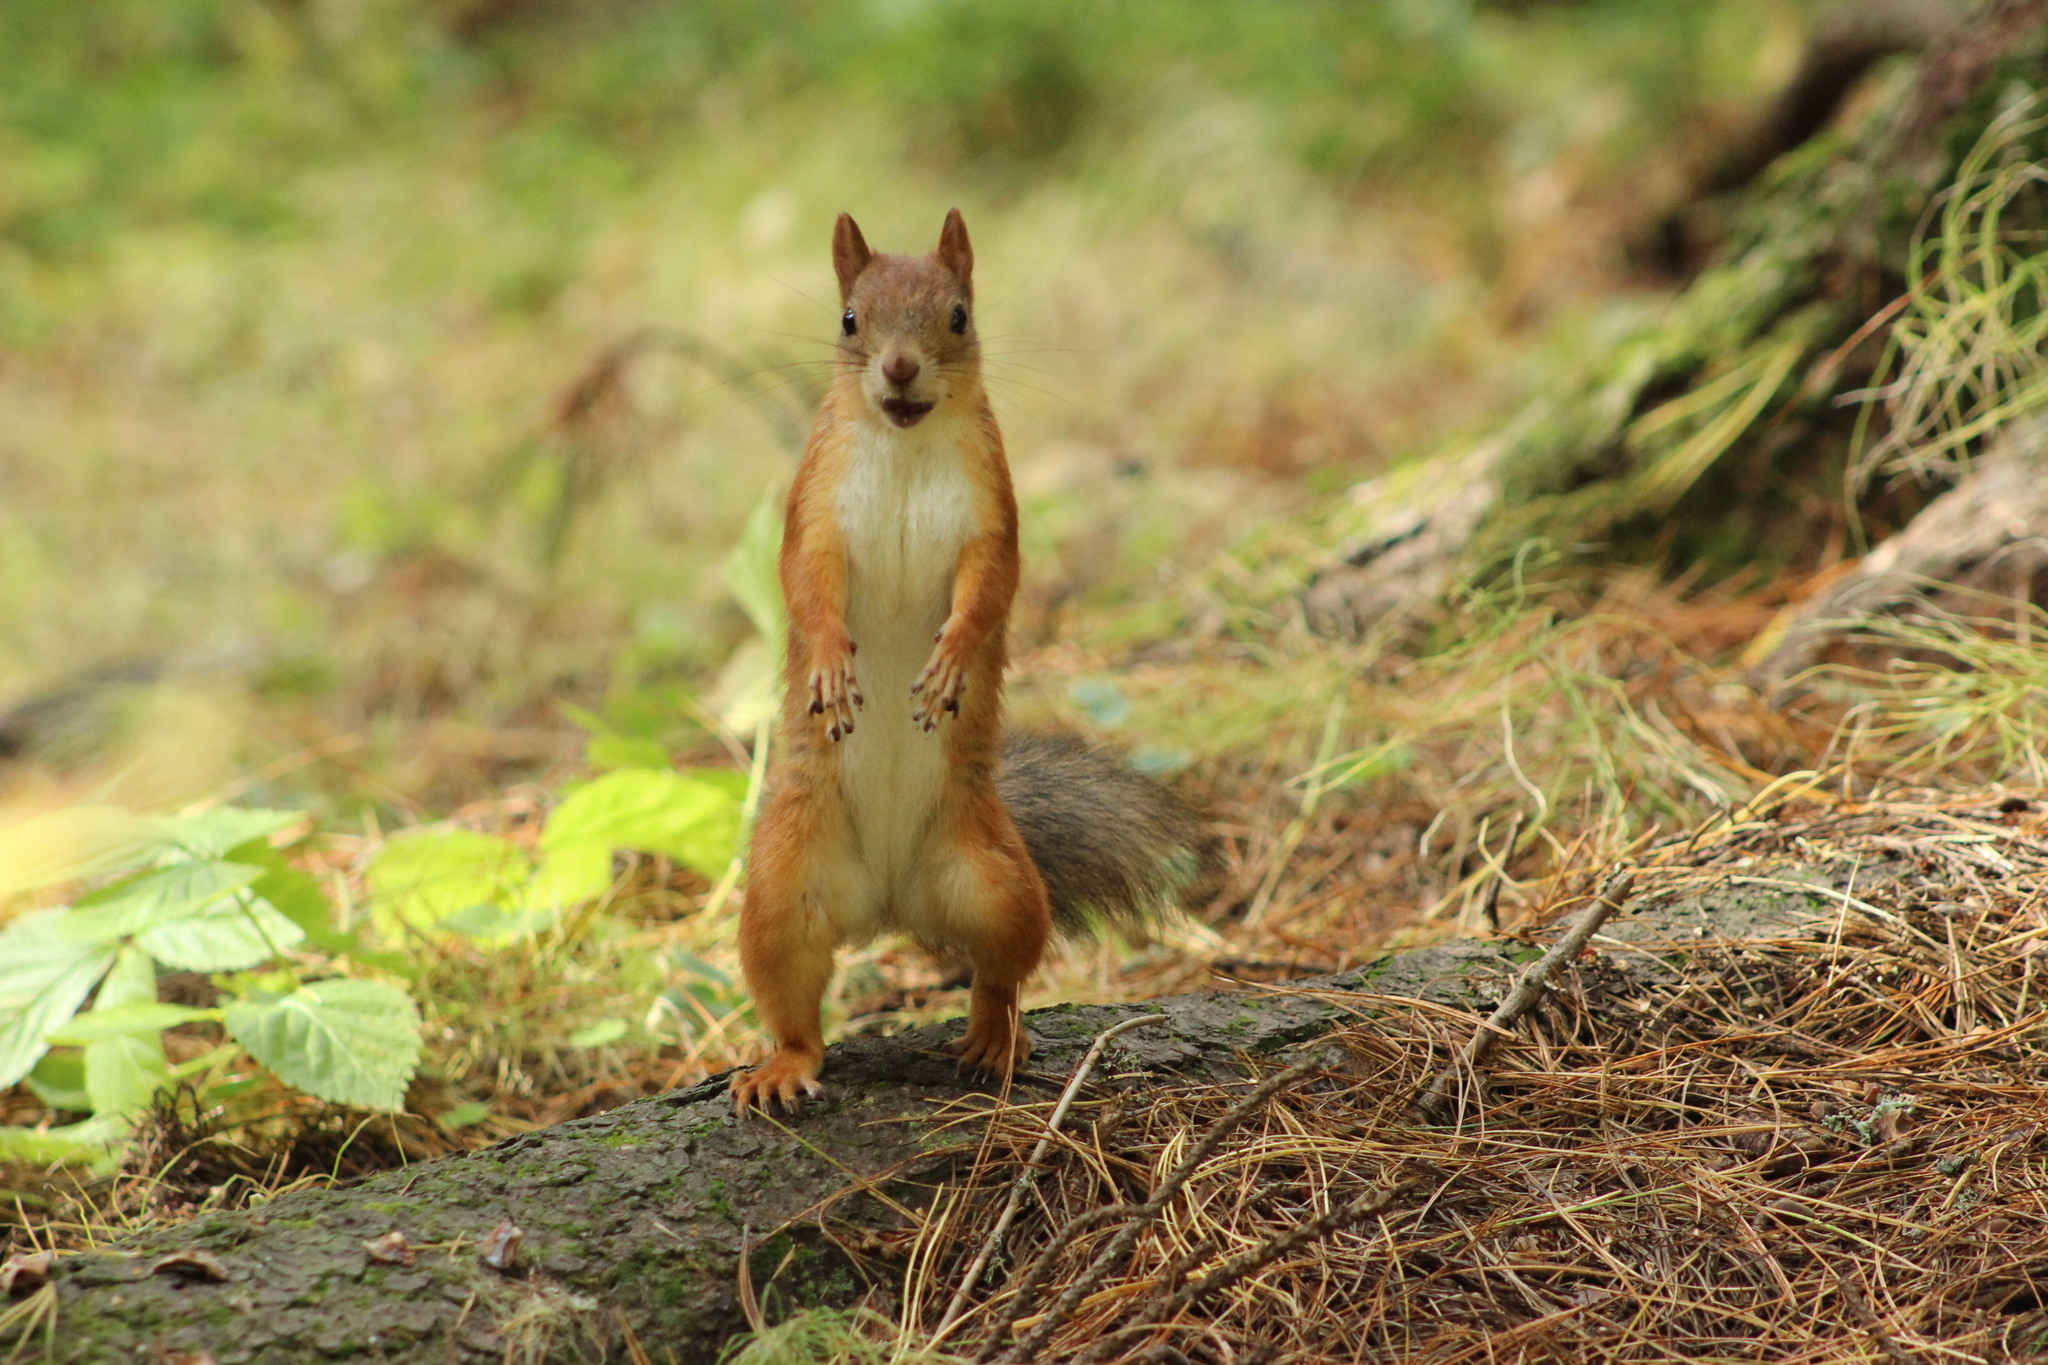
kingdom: Animalia
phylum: Chordata
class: Mammalia
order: Rodentia
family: Sciuridae
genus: Sciurus
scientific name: Sciurus vulgaris
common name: Eurasian red squirrel
